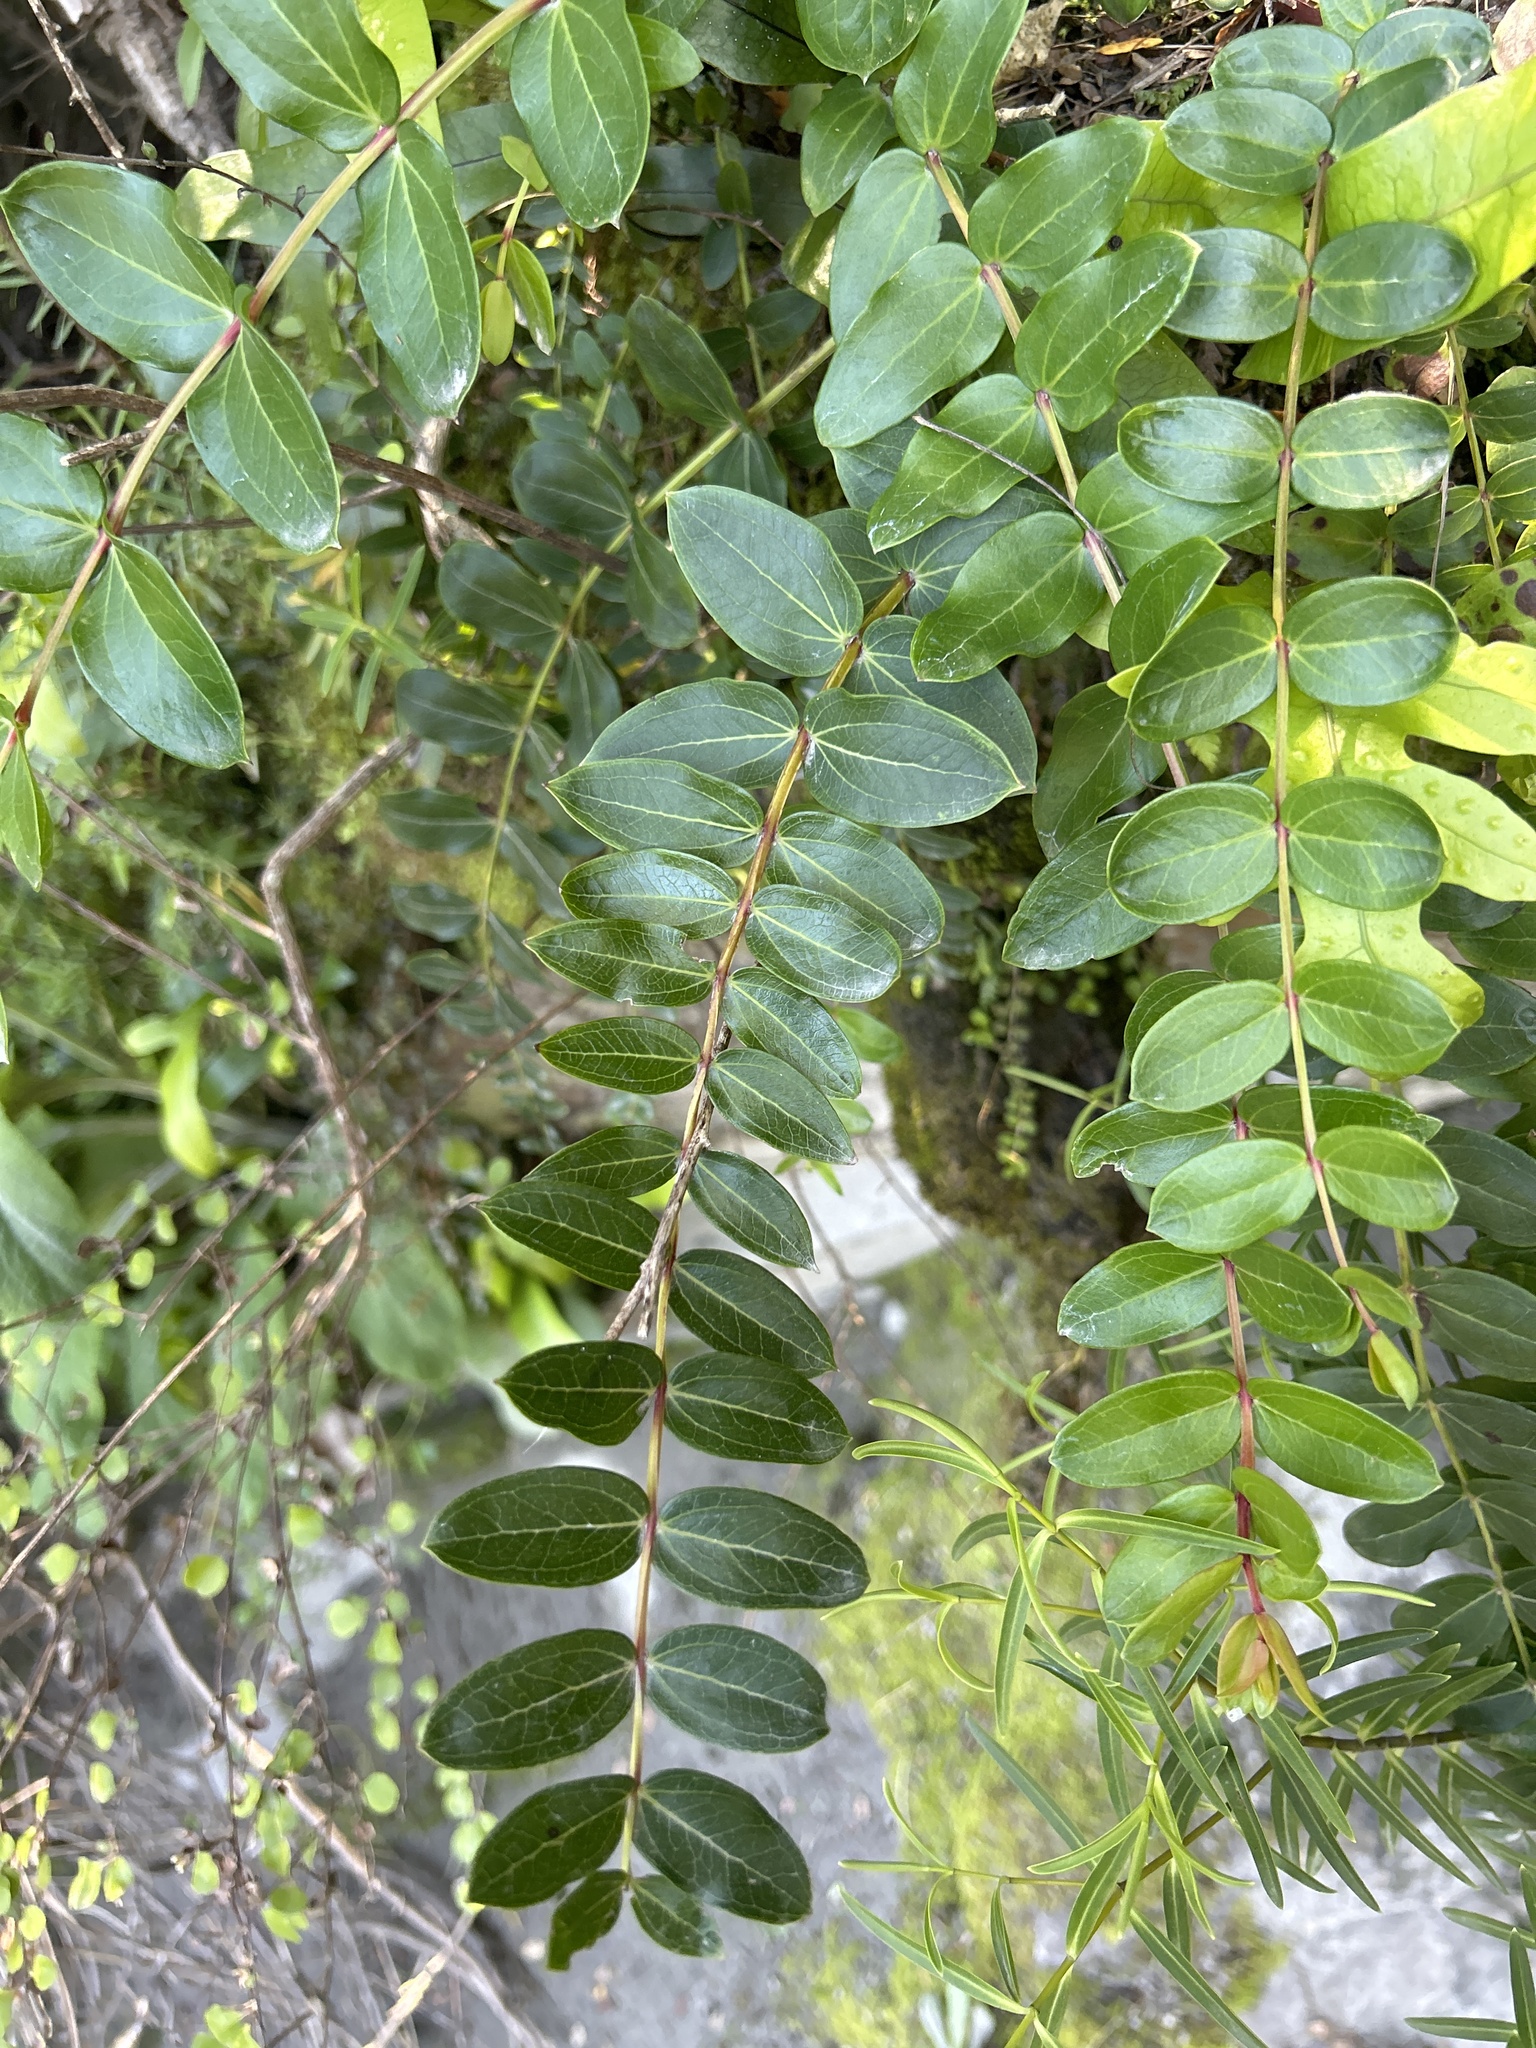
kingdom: Plantae
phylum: Tracheophyta
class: Magnoliopsida
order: Cucurbitales
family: Coriariaceae
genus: Coriaria
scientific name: Coriaria arborea
